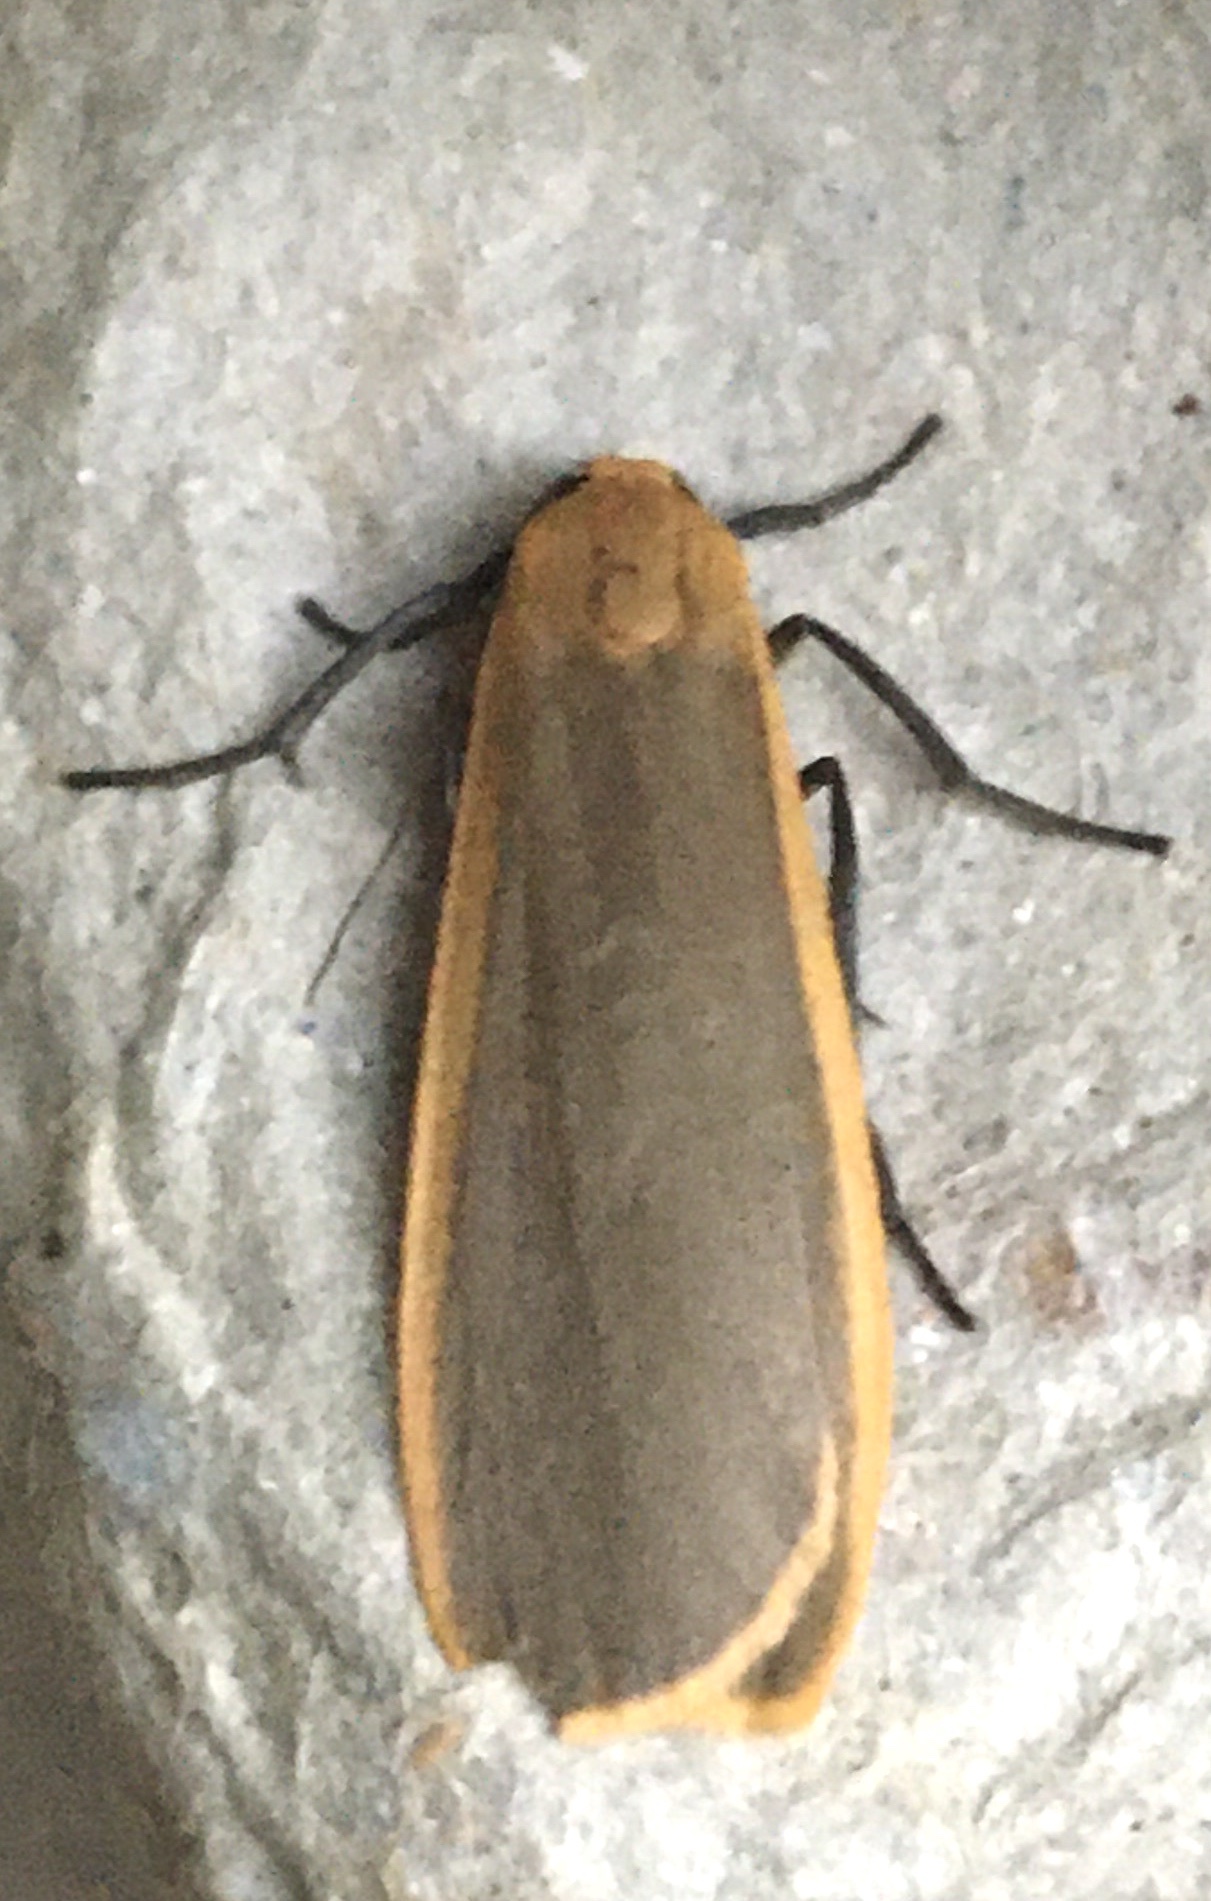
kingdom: Animalia
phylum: Arthropoda
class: Insecta
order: Lepidoptera
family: Erebidae
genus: Katha
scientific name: Katha depressa
